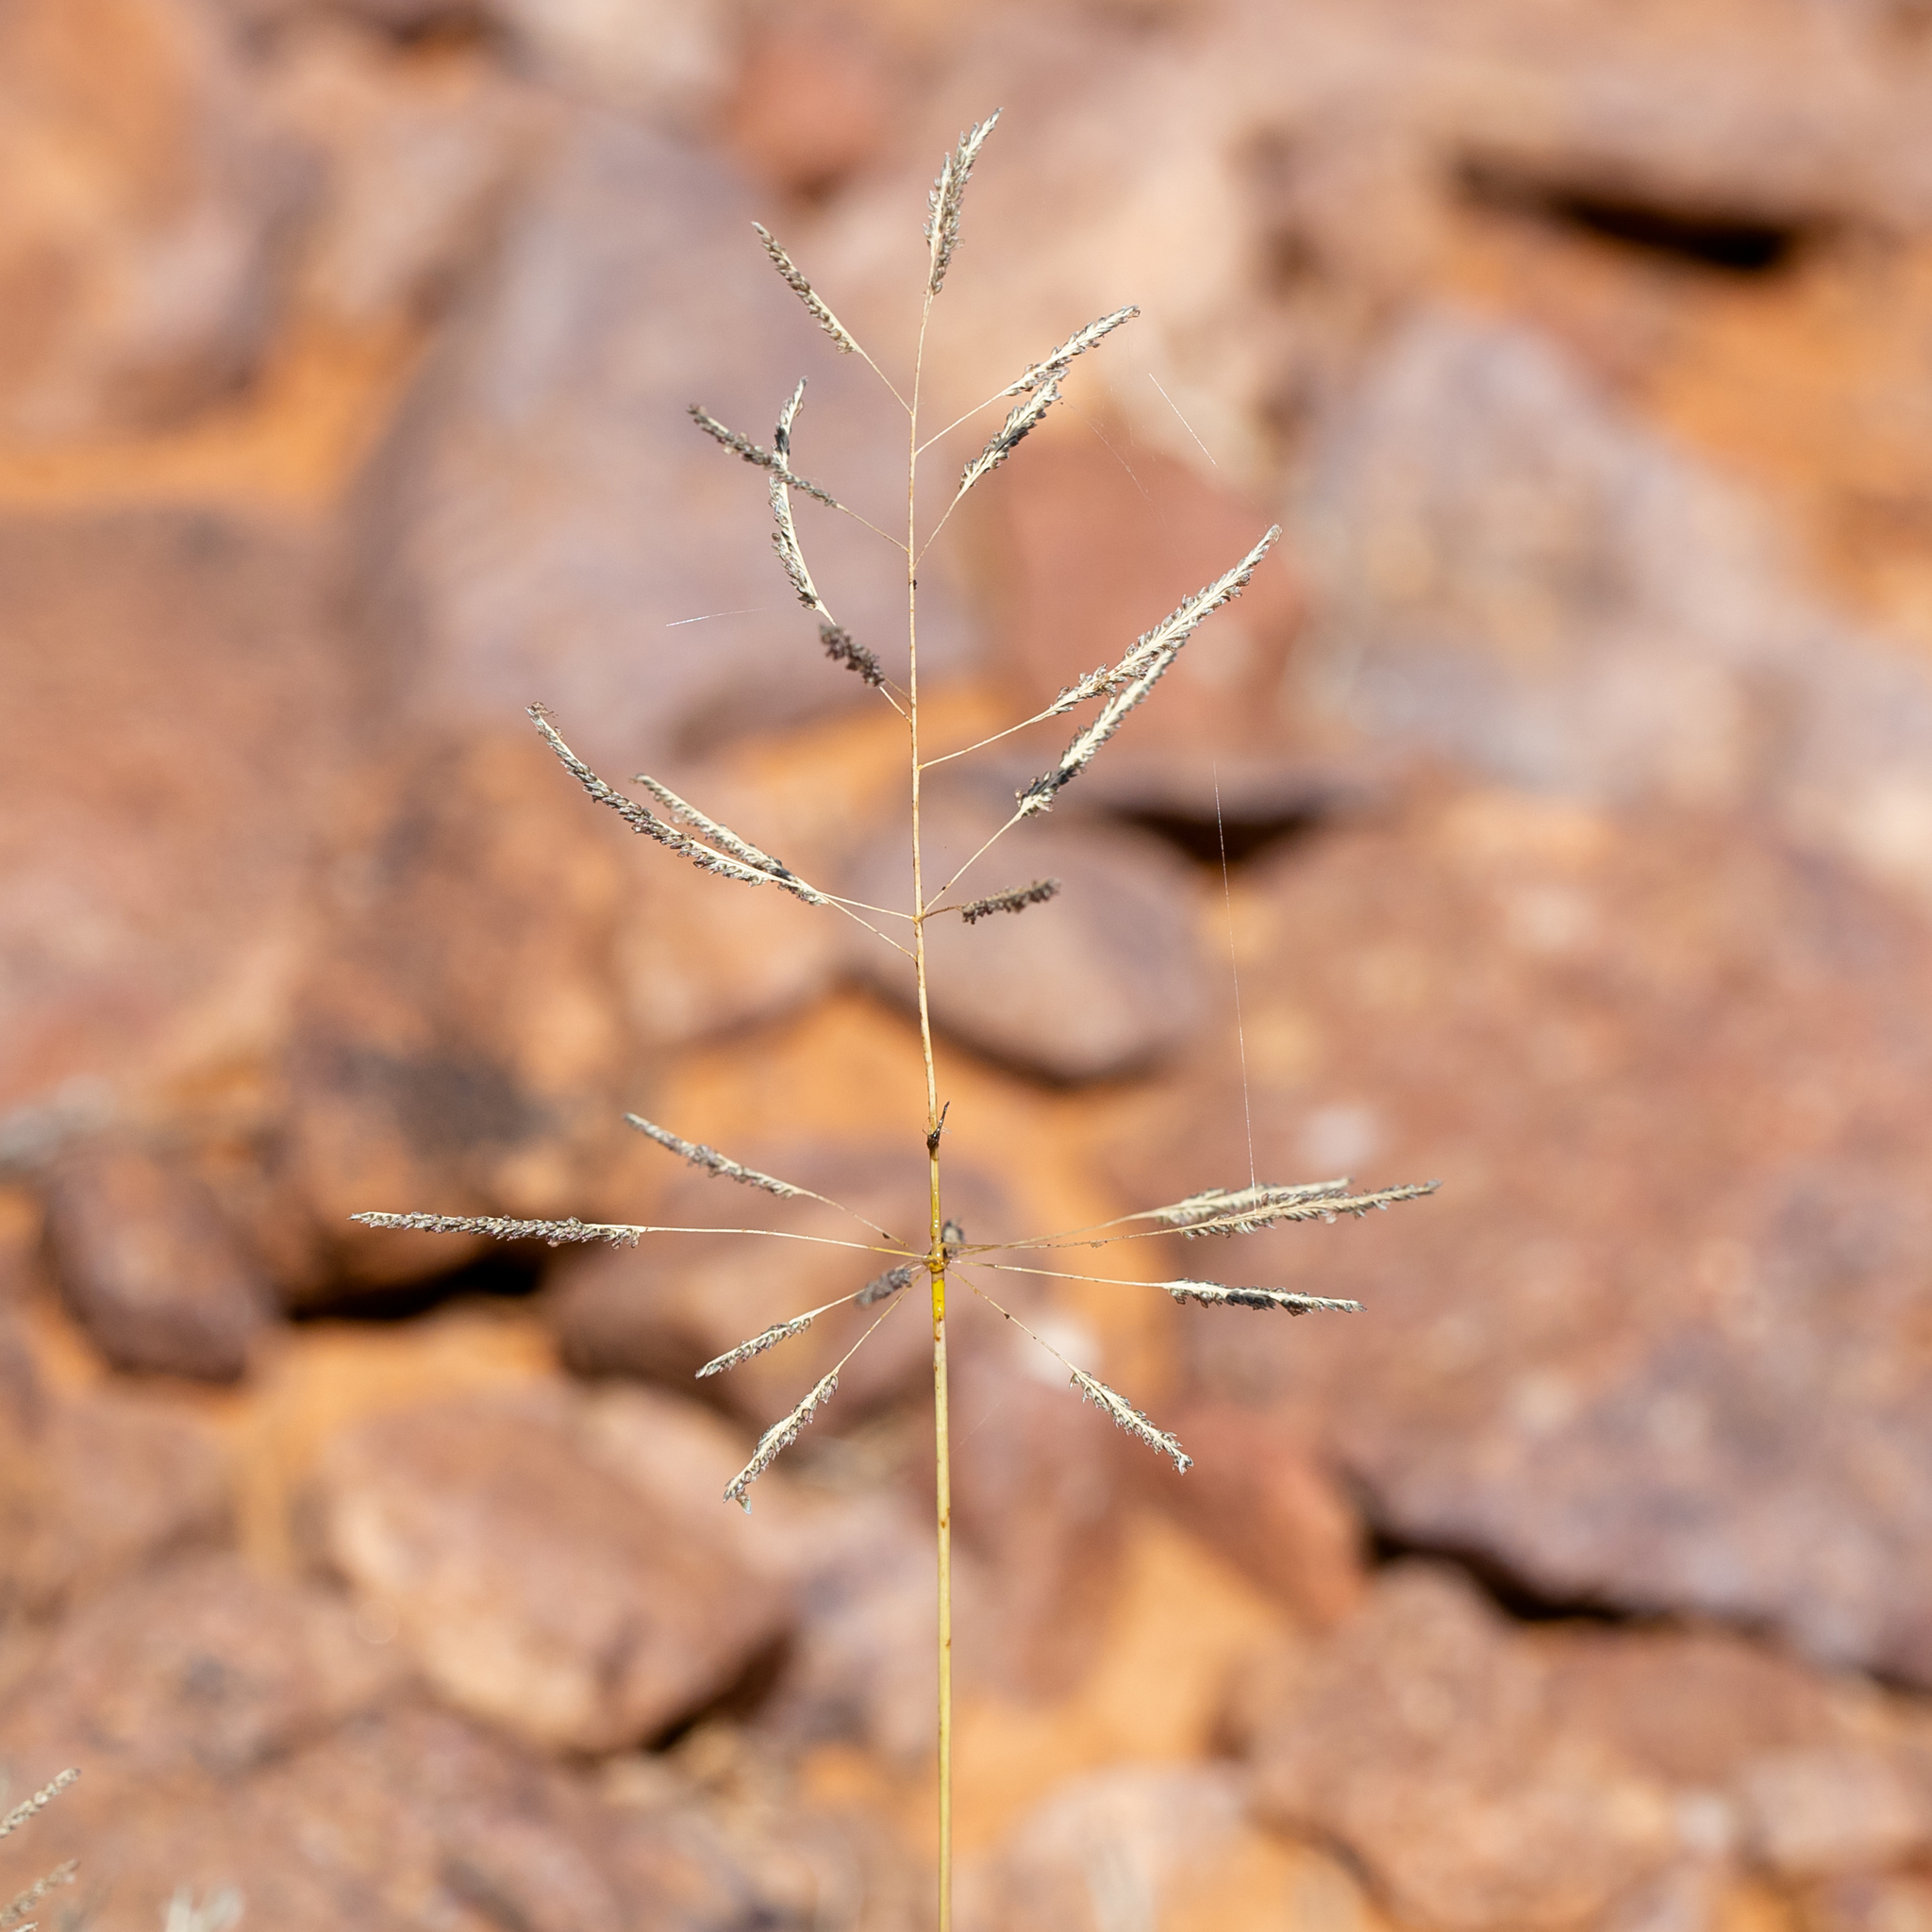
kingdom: Plantae
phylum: Tracheophyta
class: Liliopsida
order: Poales
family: Poaceae
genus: Sporobolus
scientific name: Sporobolus actinocladus
